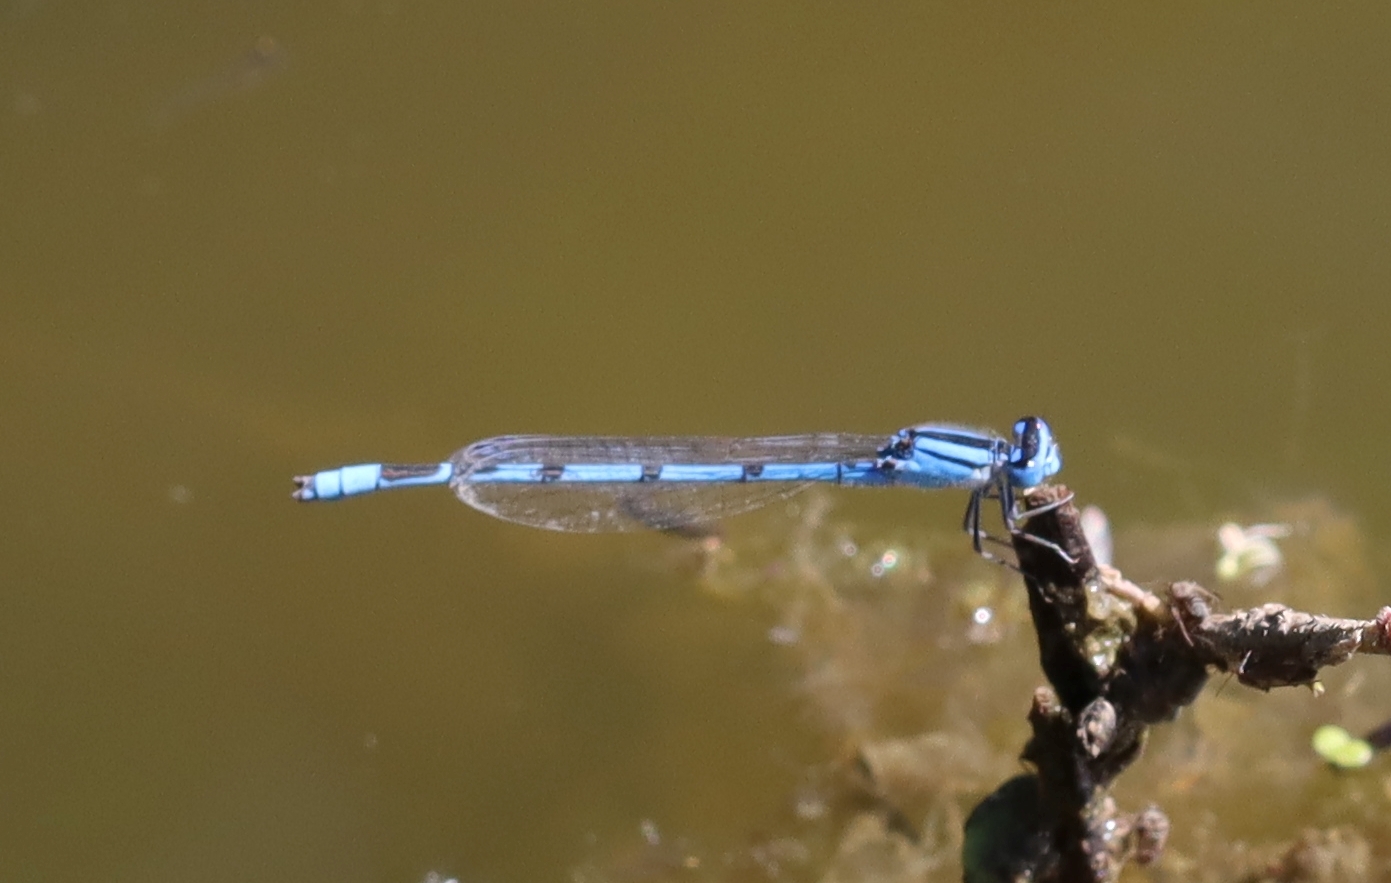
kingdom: Animalia
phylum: Arthropoda
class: Insecta
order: Odonata
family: Coenagrionidae
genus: Enallagma
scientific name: Enallagma civile
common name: Damselfly
